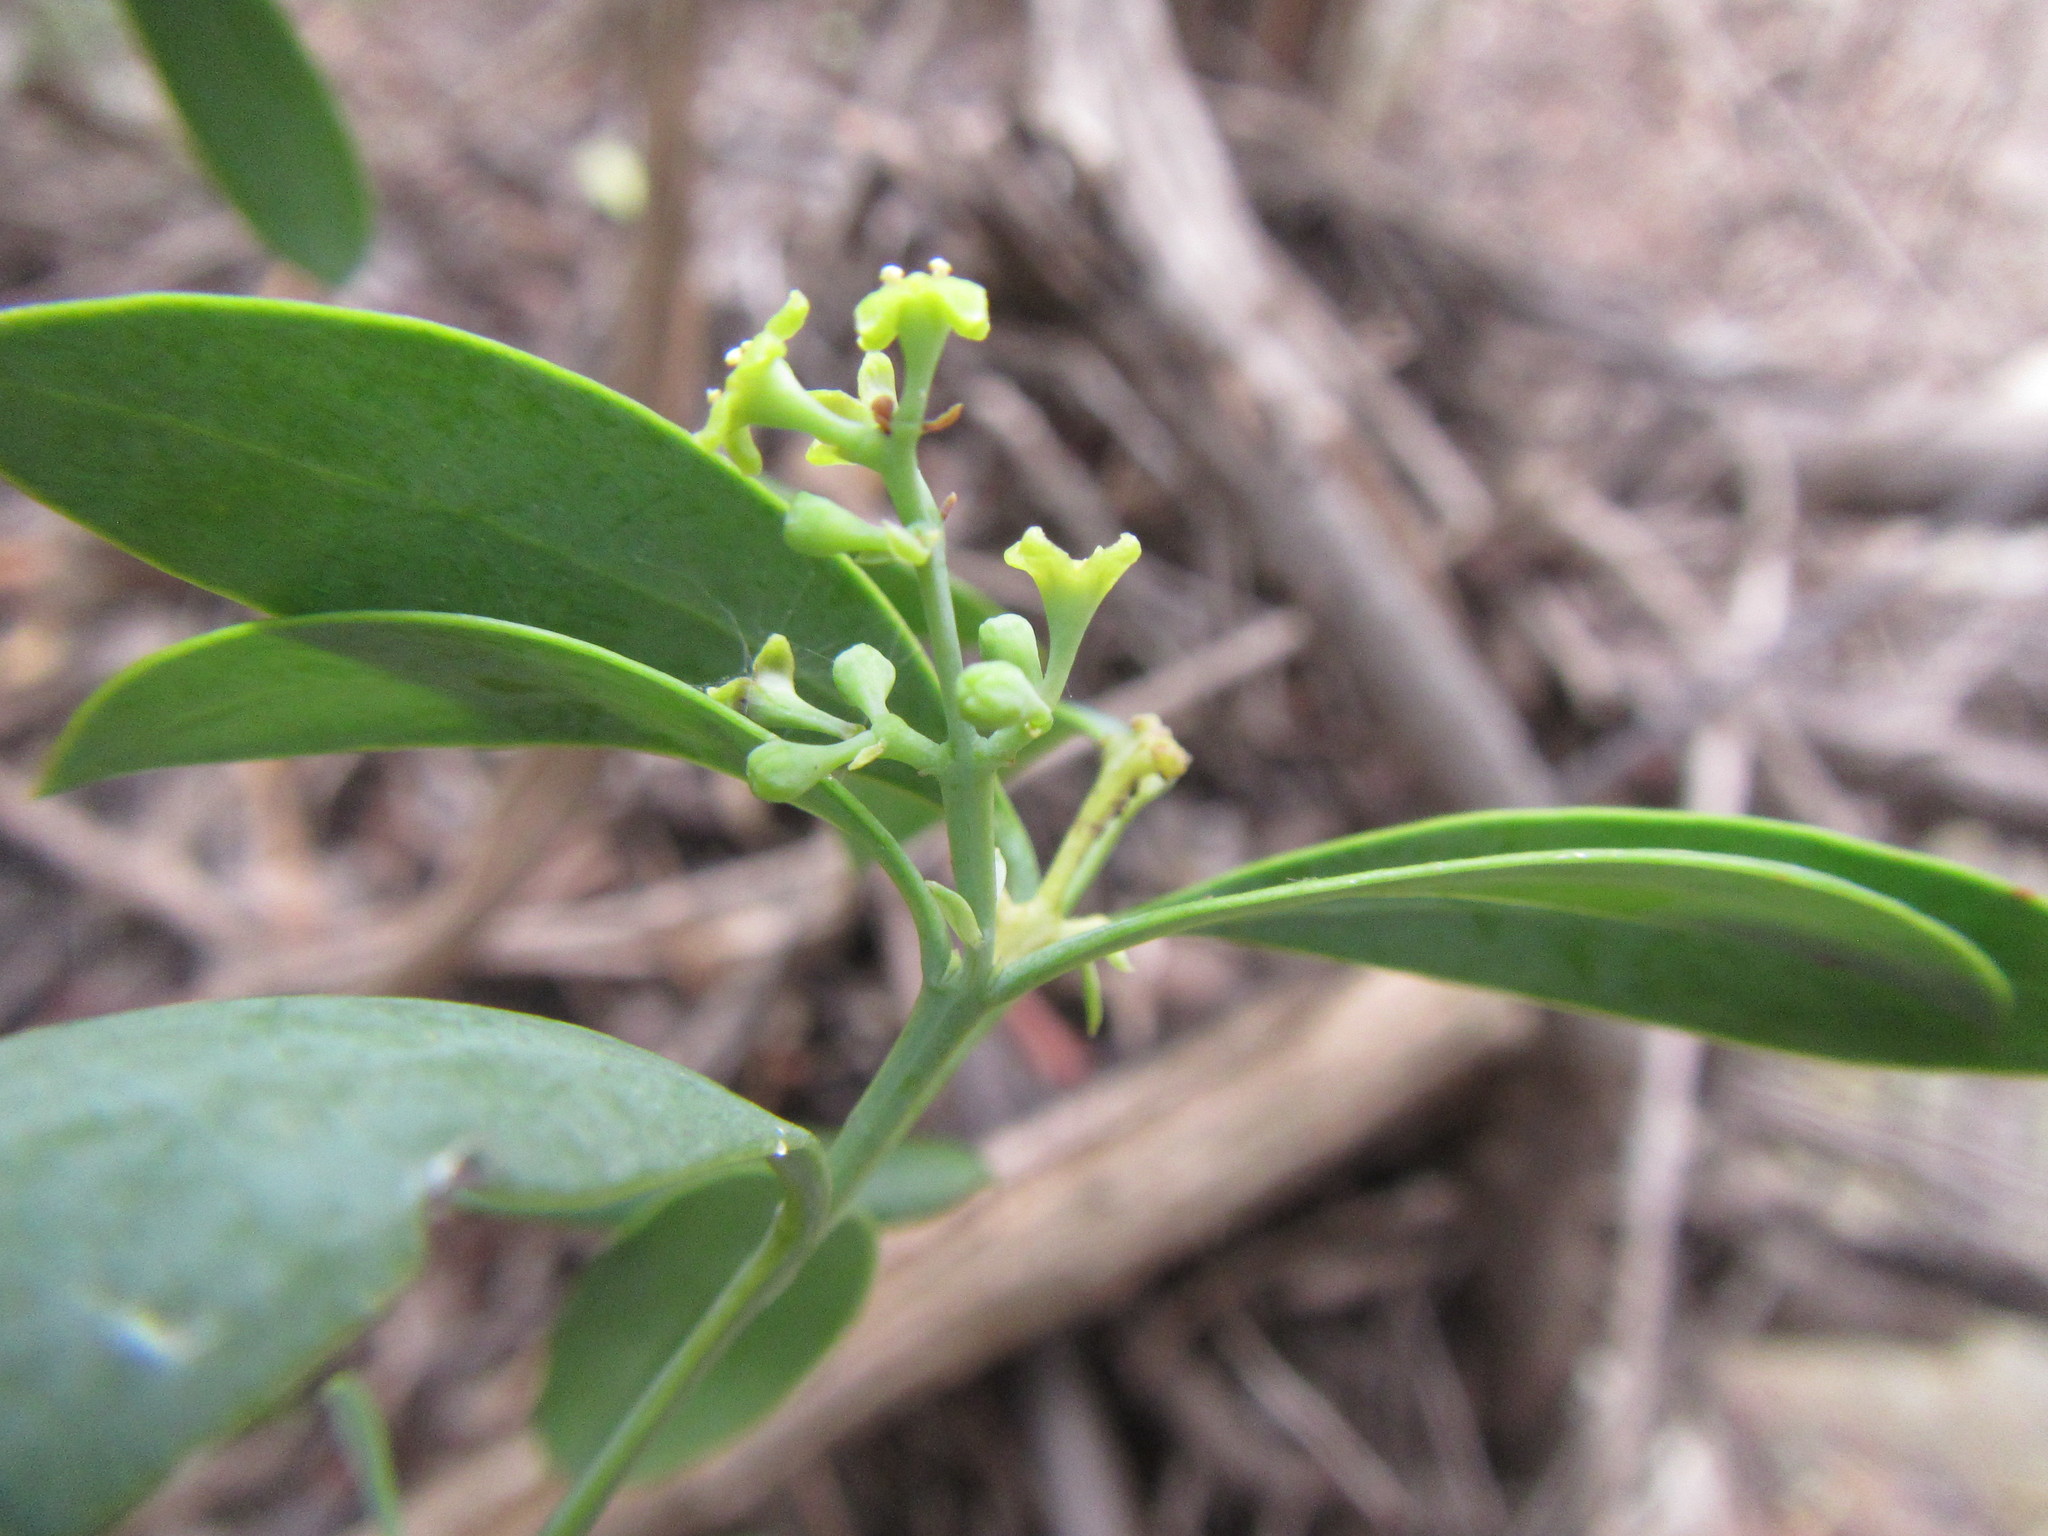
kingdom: Plantae
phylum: Tracheophyta
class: Magnoliopsida
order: Santalales
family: Santalaceae
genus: Osyris
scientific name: Osyris compressa
